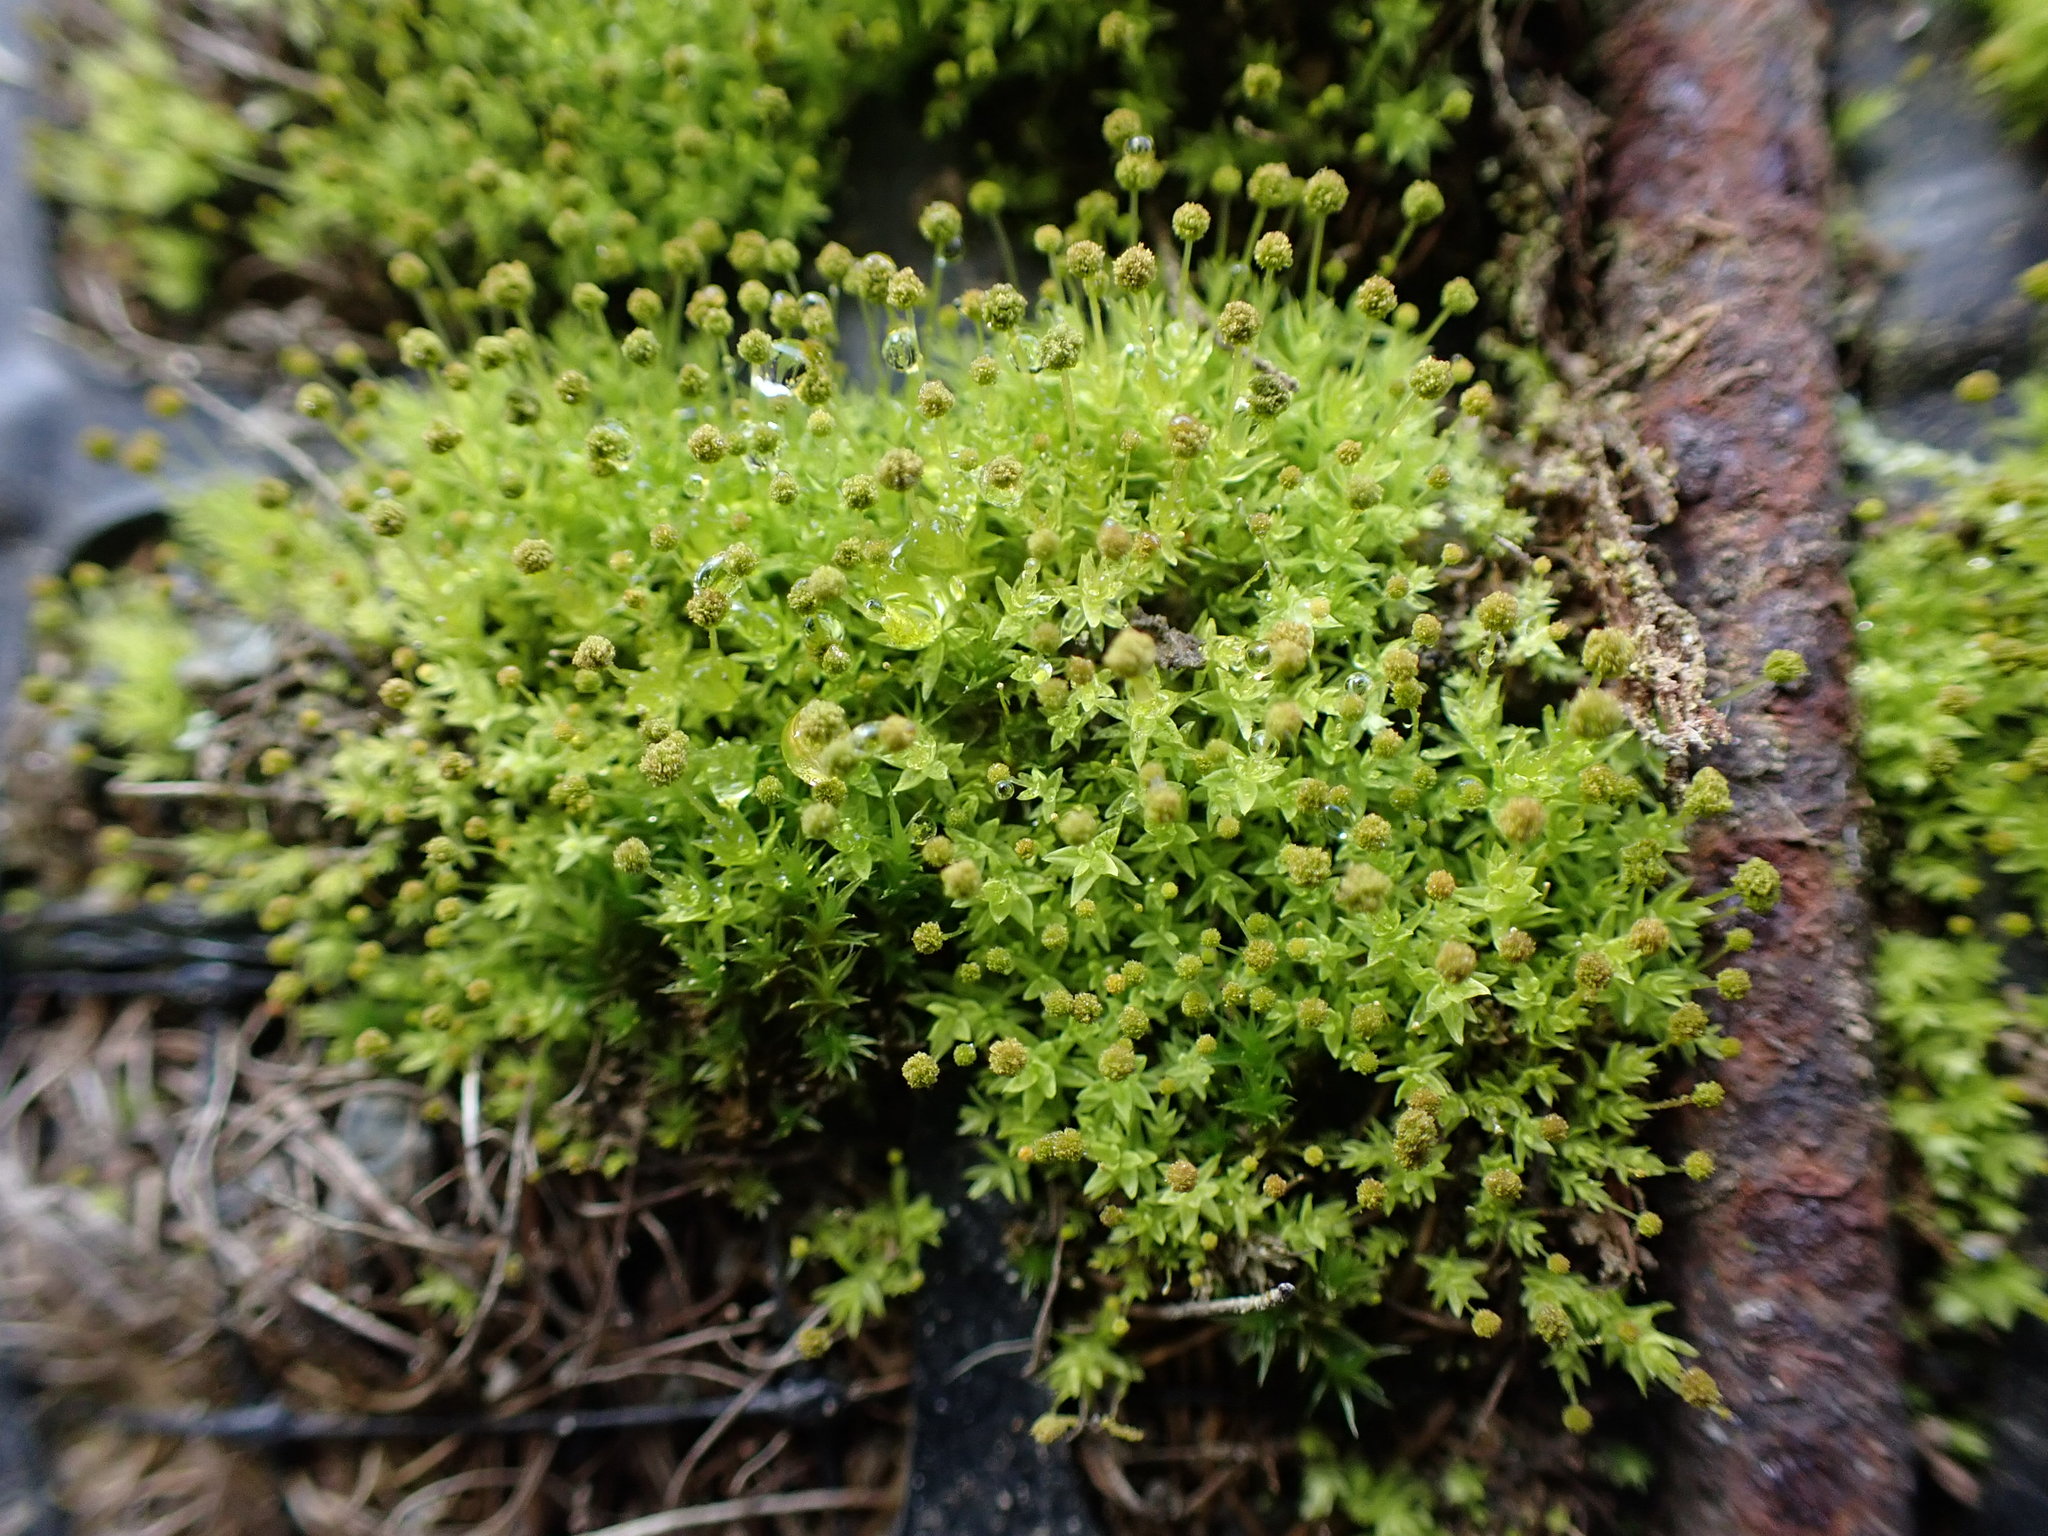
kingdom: Plantae
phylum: Bryophyta
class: Bryopsida
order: Aulacomniales
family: Aulacomniaceae
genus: Aulacomnium
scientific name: Aulacomnium androgynum
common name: Little groove moss
